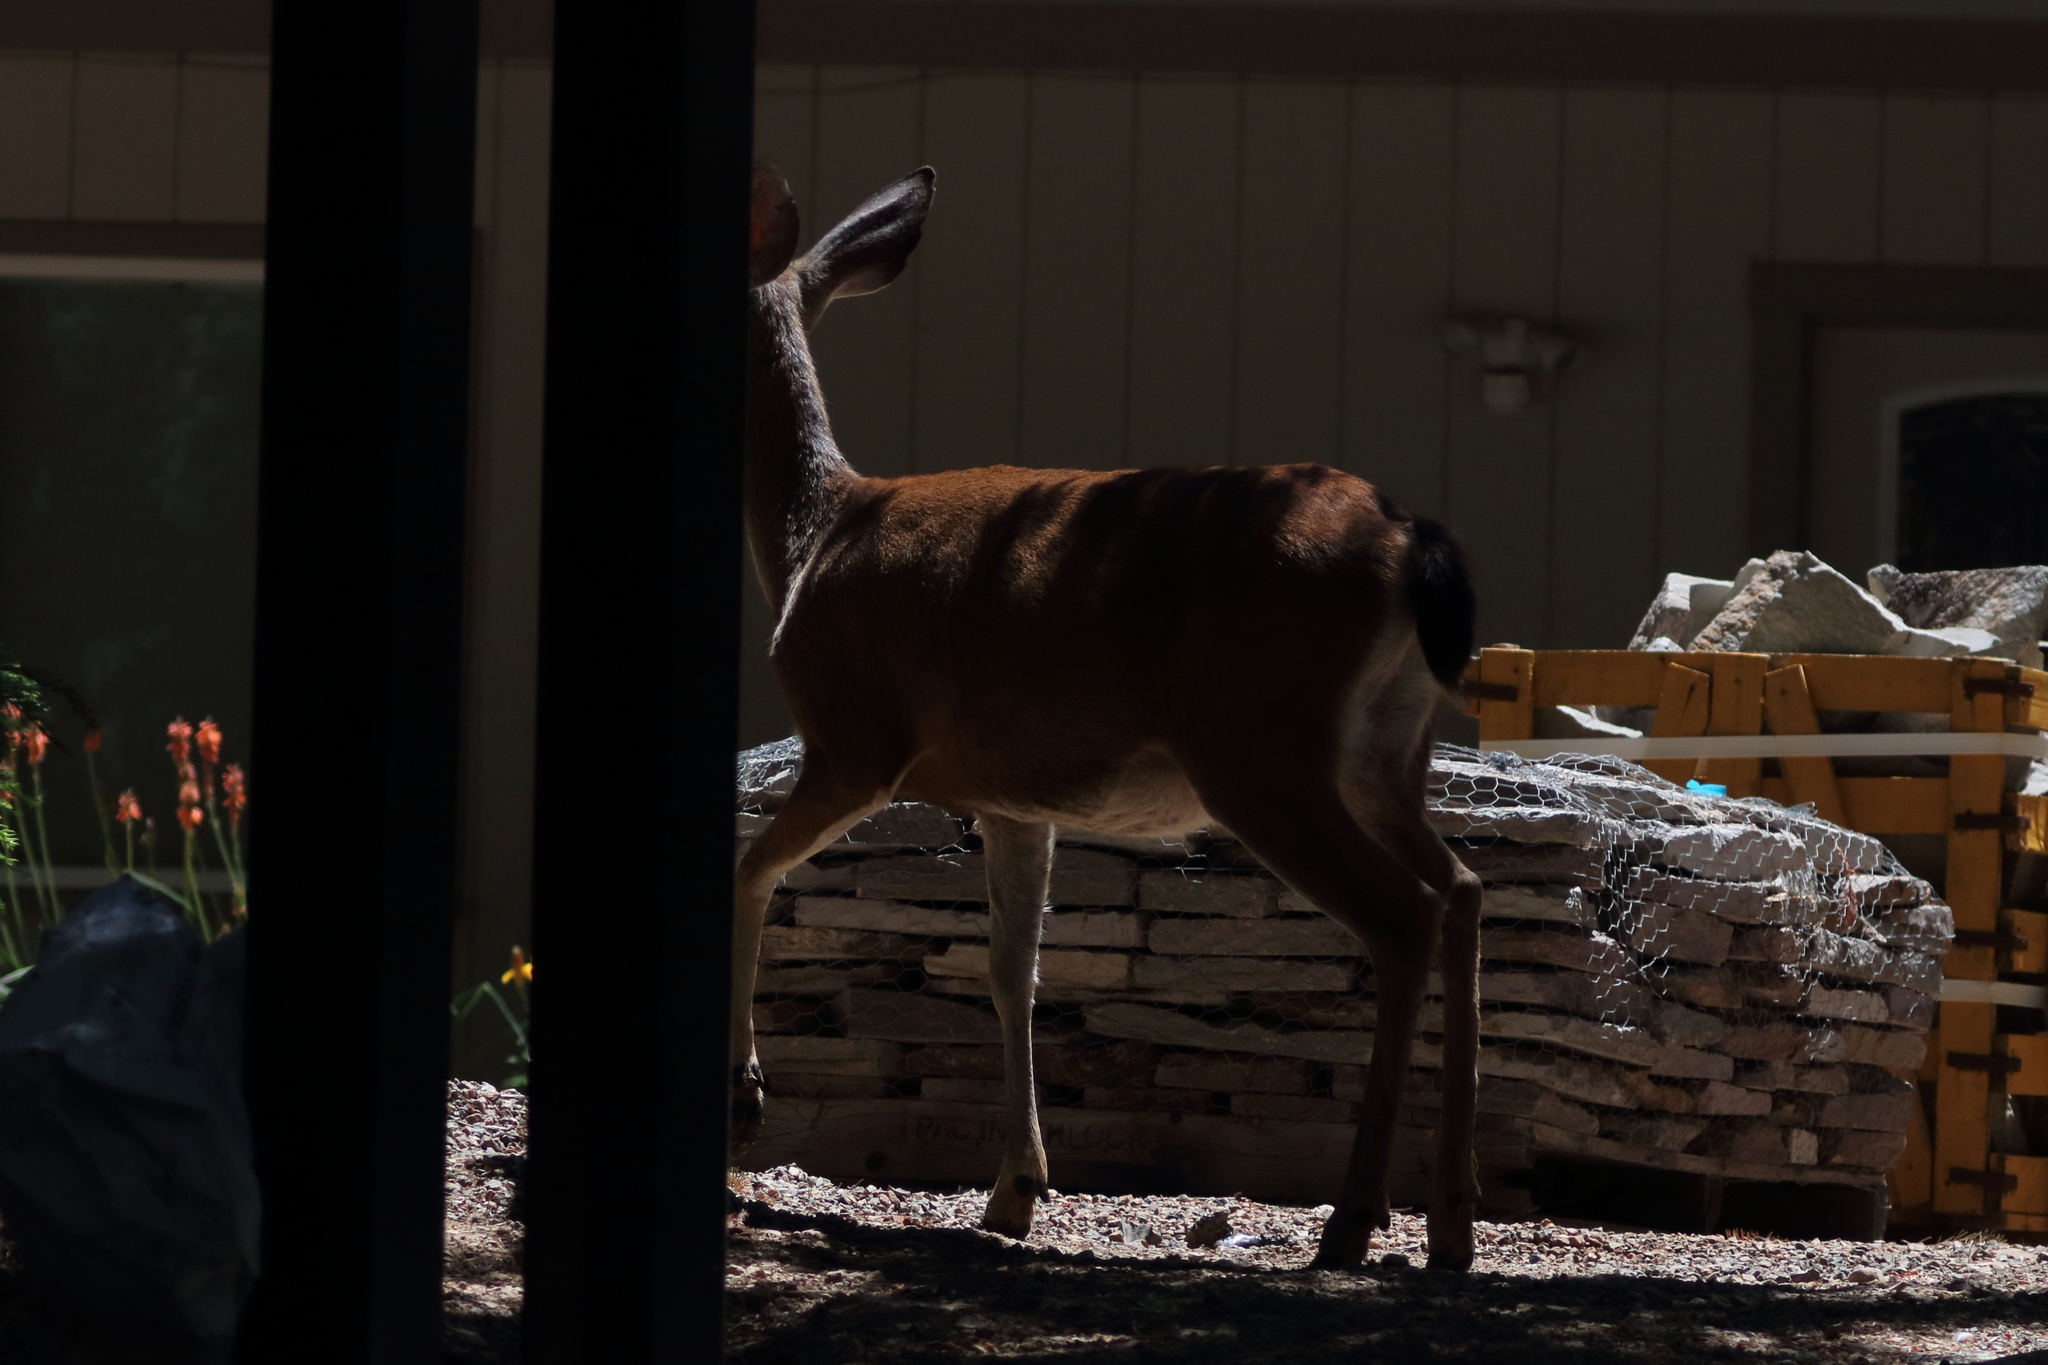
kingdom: Animalia
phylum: Chordata
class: Mammalia
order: Artiodactyla
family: Cervidae
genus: Odocoileus
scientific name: Odocoileus hemionus
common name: Mule deer
